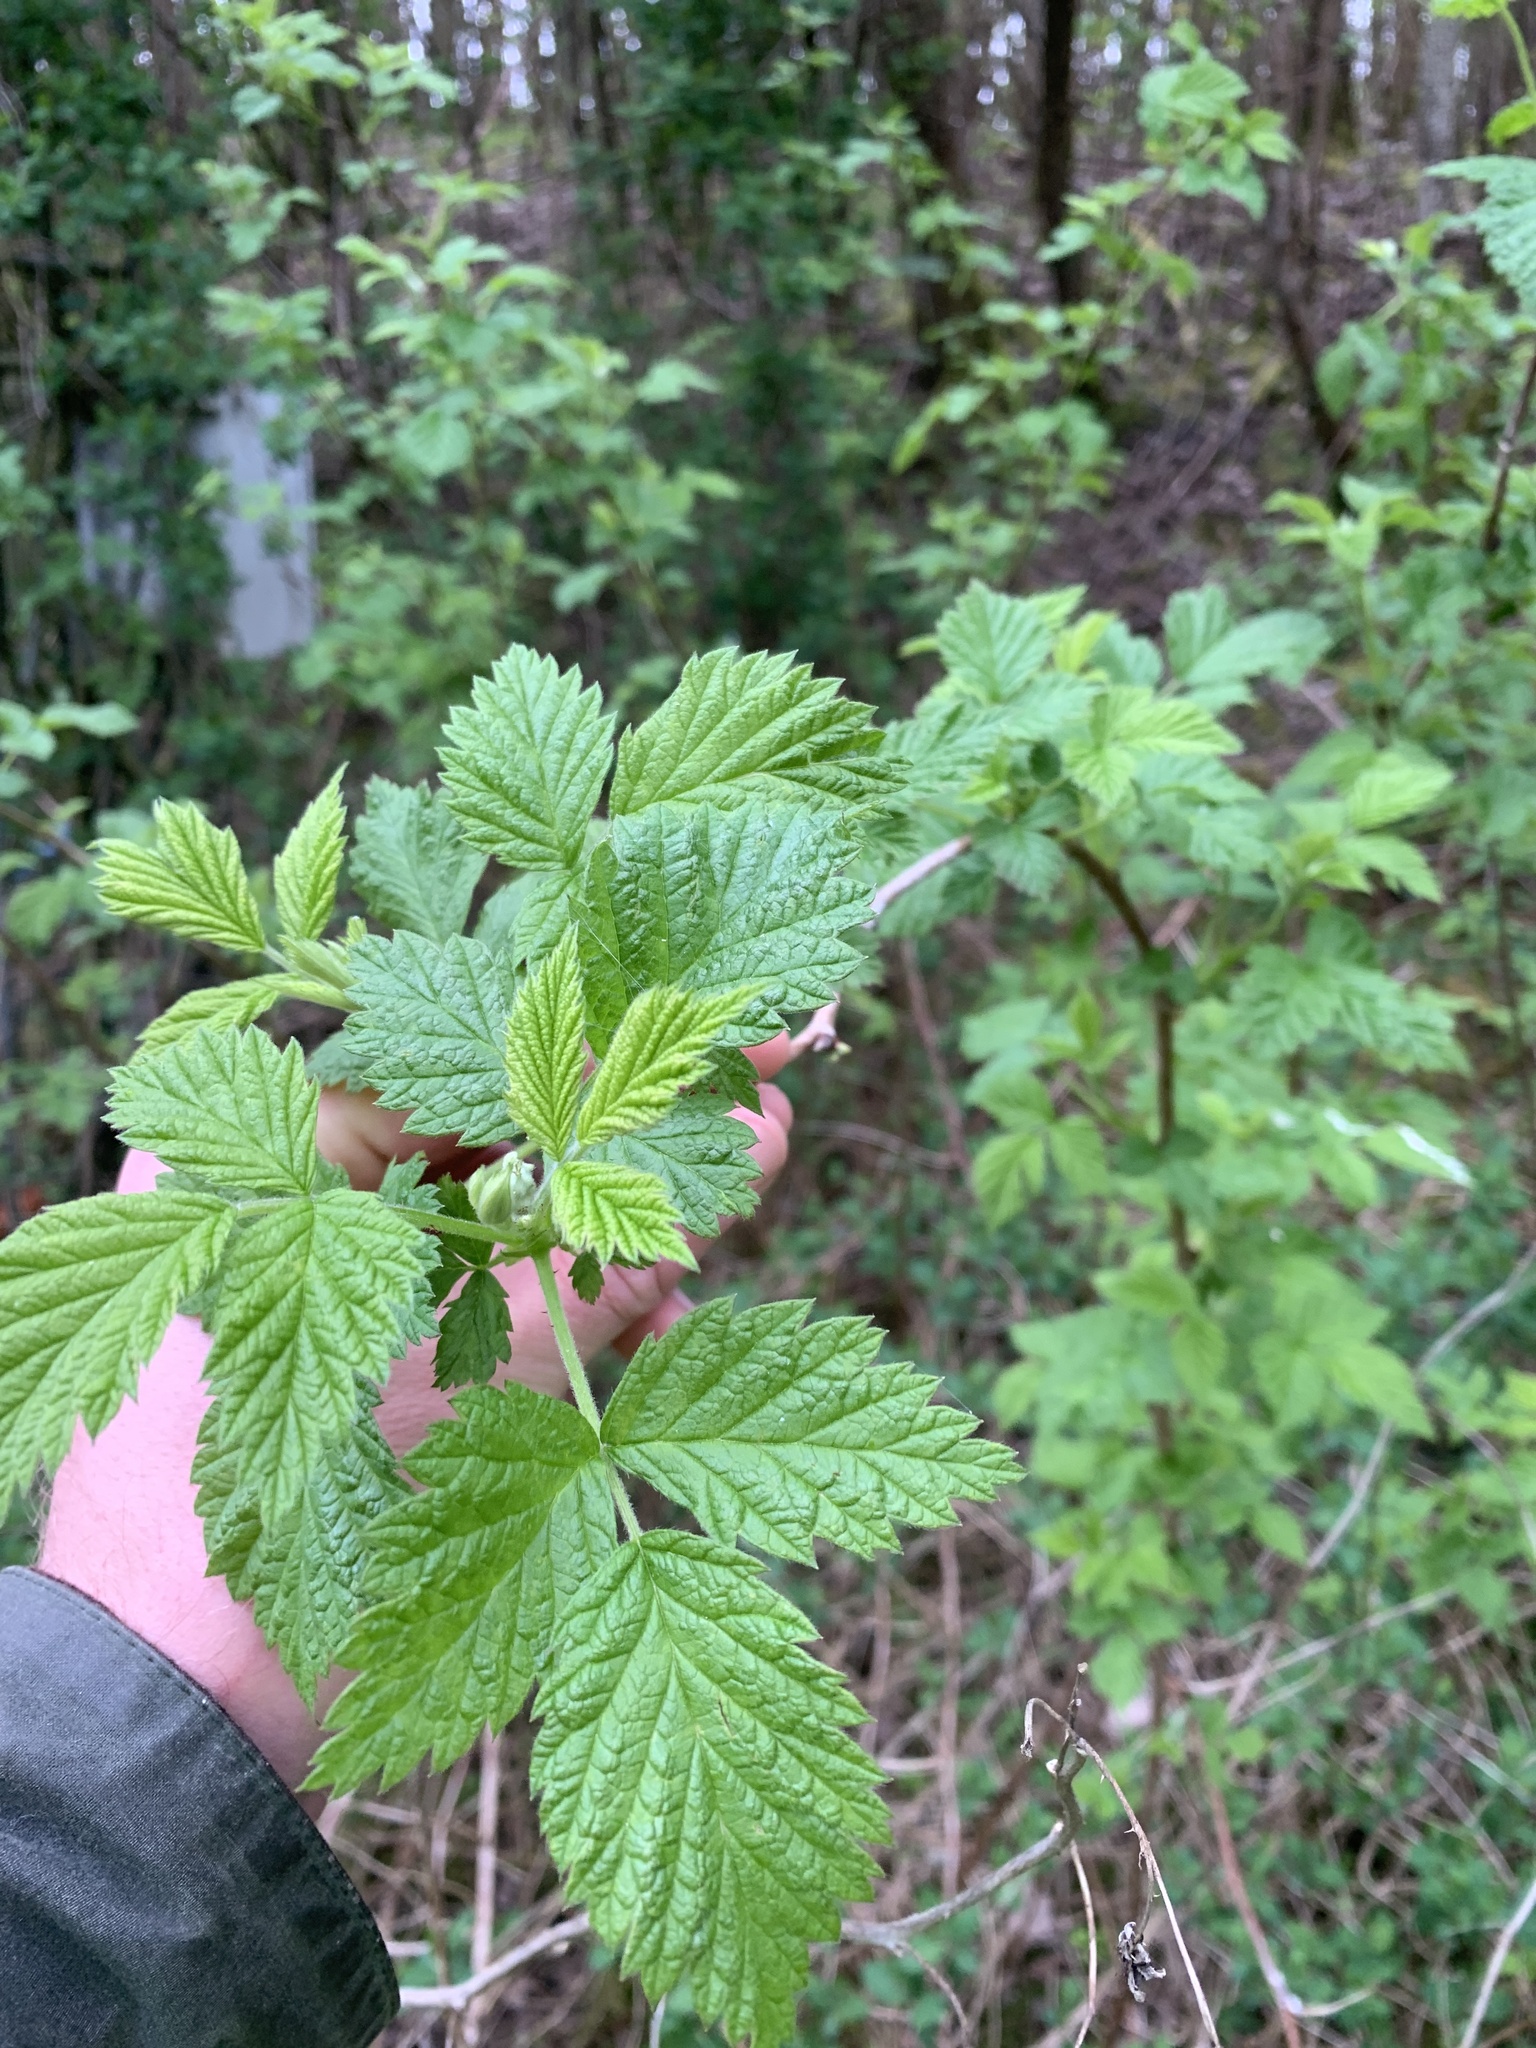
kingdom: Plantae
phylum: Tracheophyta
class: Magnoliopsida
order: Rosales
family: Rosaceae
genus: Rubus
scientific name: Rubus idaeus
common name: Raspberry
